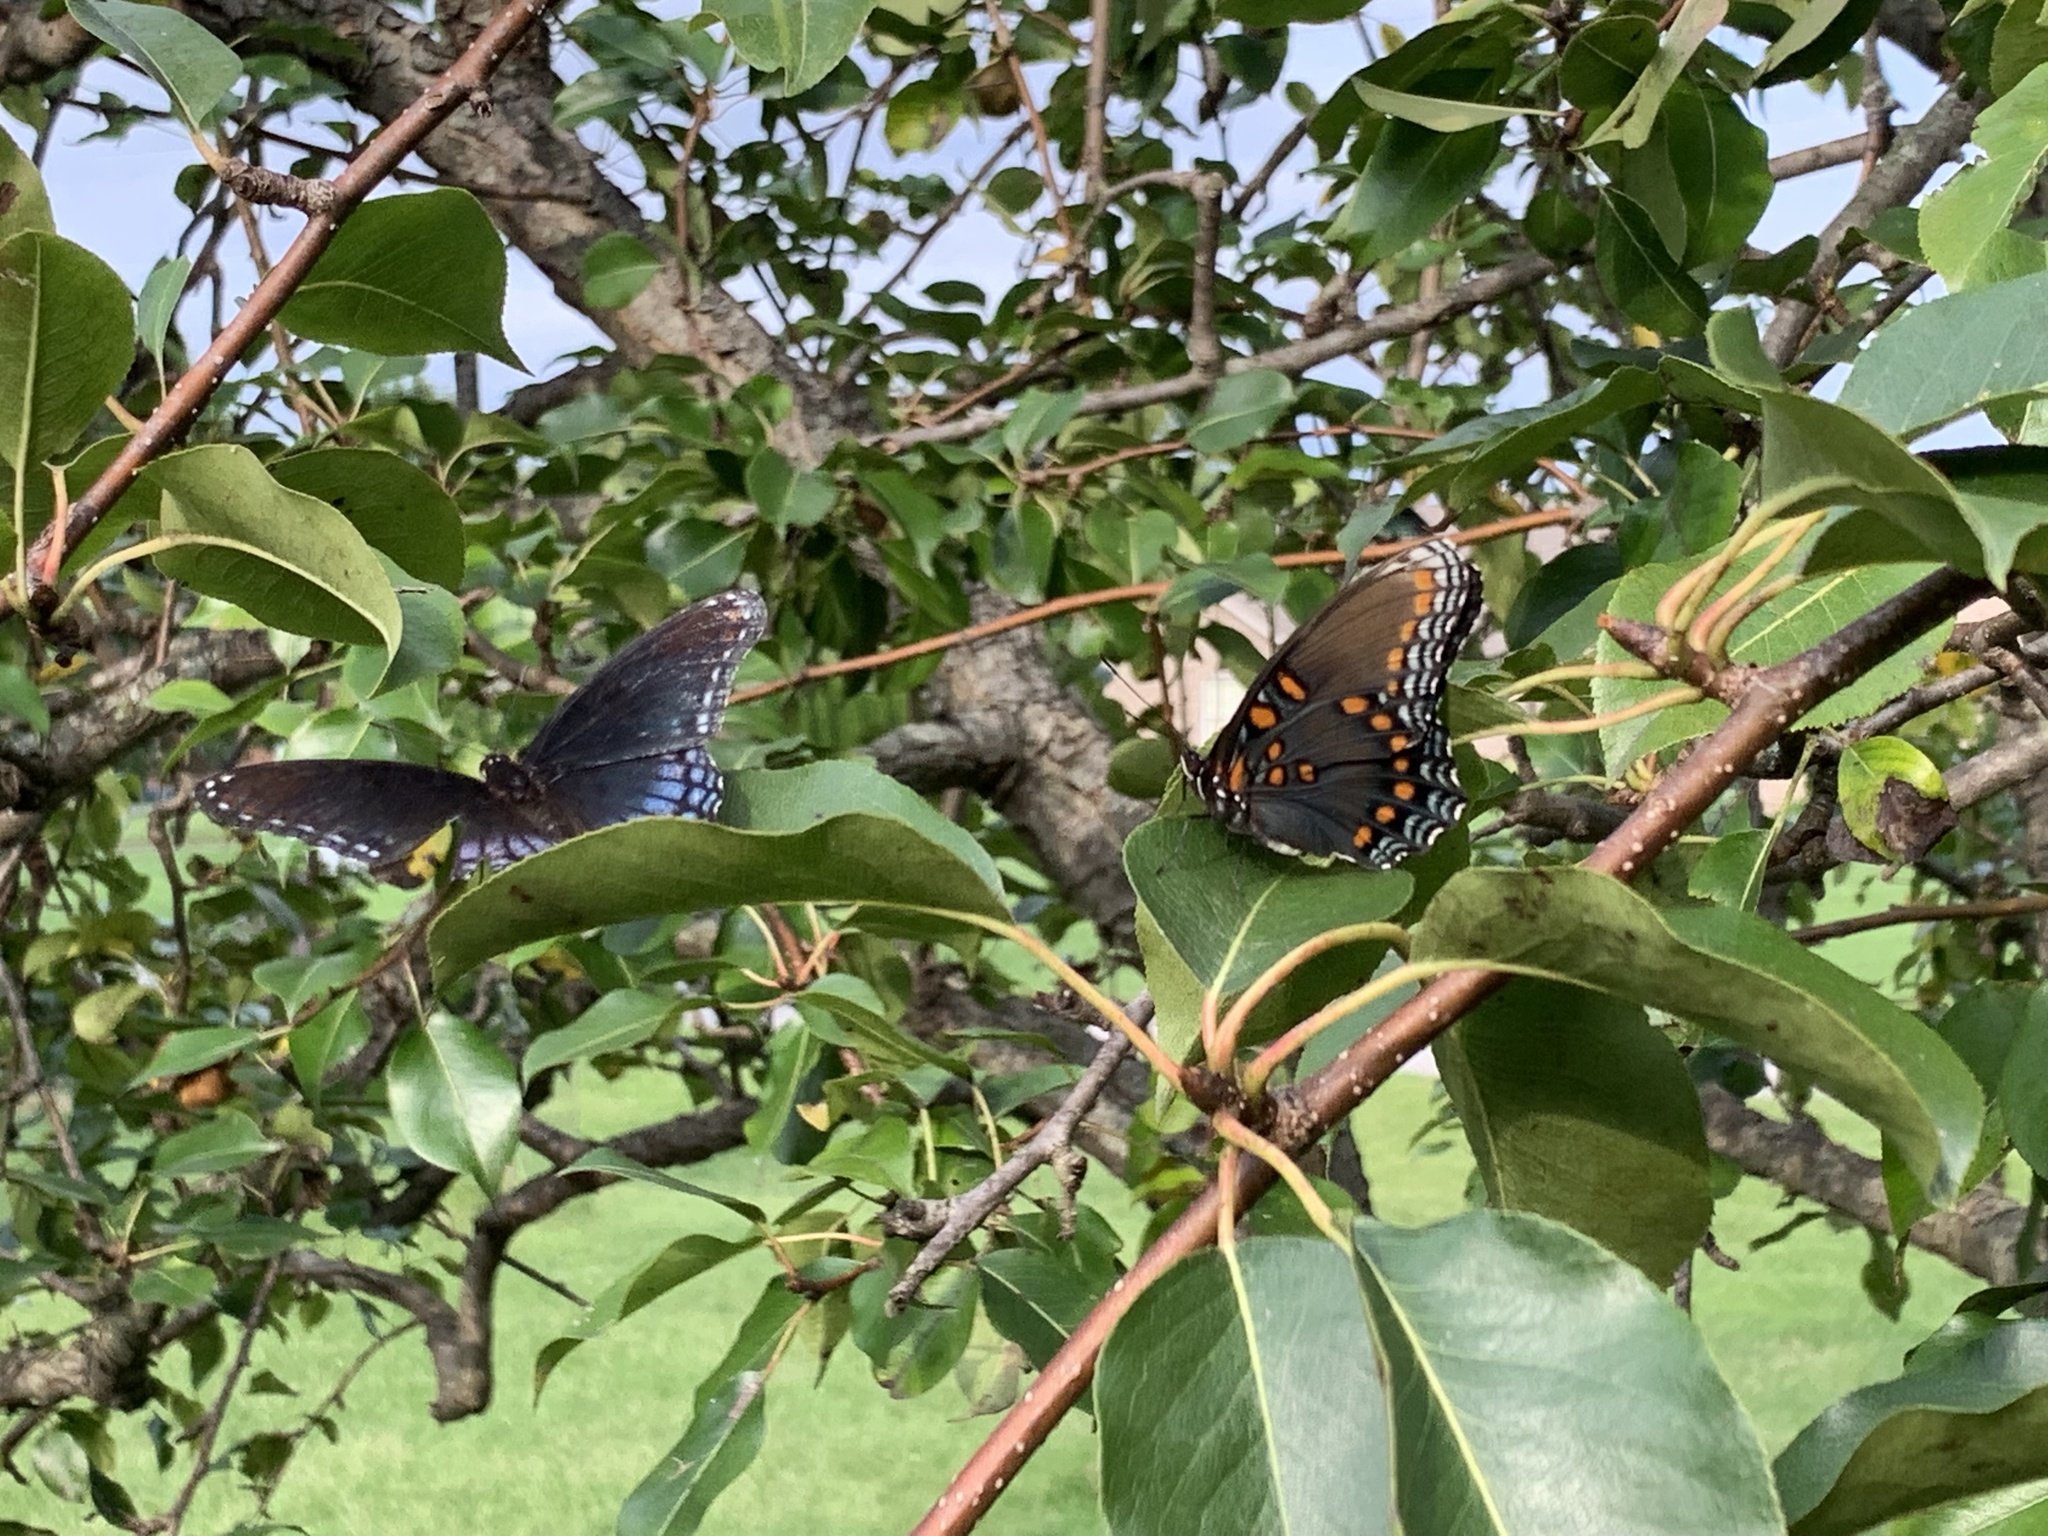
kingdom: Animalia
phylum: Arthropoda
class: Insecta
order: Lepidoptera
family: Nymphalidae
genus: Limenitis
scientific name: Limenitis arthemis
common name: Red-spotted admiral
